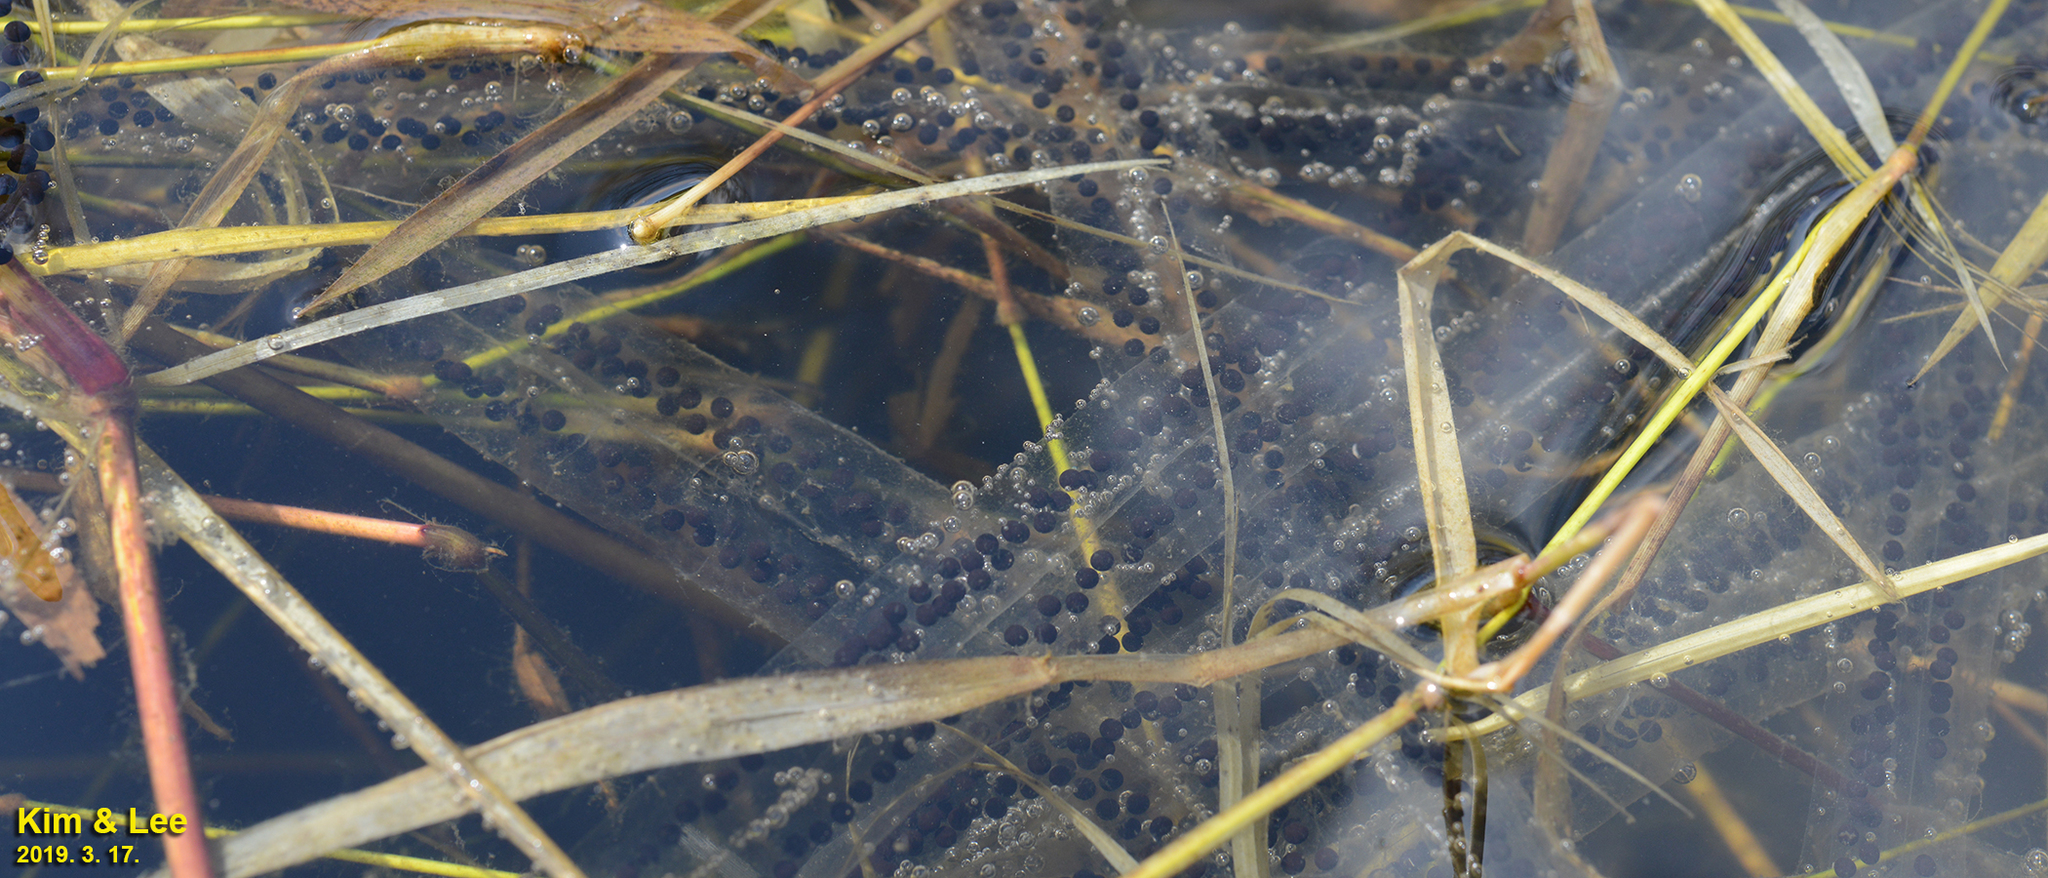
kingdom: Animalia
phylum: Chordata
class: Amphibia
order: Anura
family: Bufonidae
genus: Bufo
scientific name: Bufo gargarizans
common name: Asiatic toad
